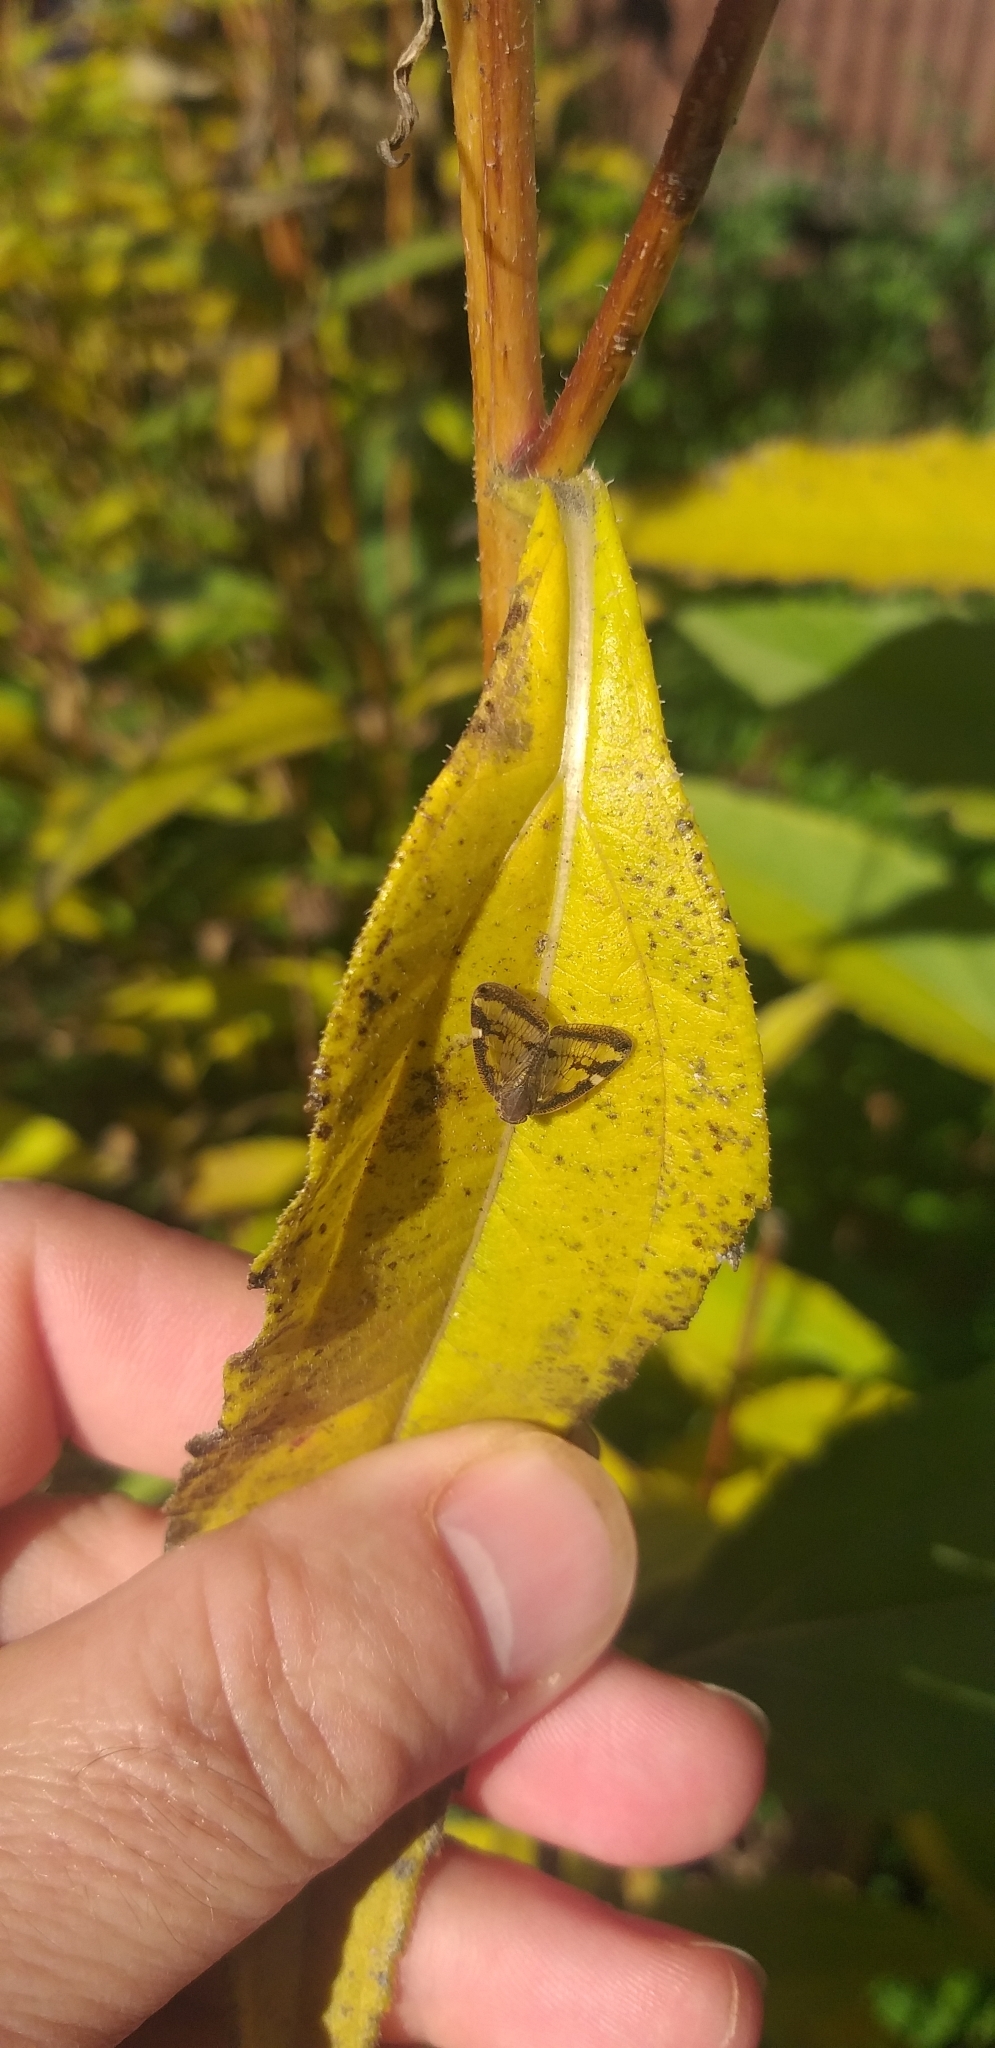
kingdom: Animalia
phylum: Arthropoda
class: Insecta
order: Hemiptera
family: Ricaniidae
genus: Scolypopa
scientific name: Scolypopa australis
